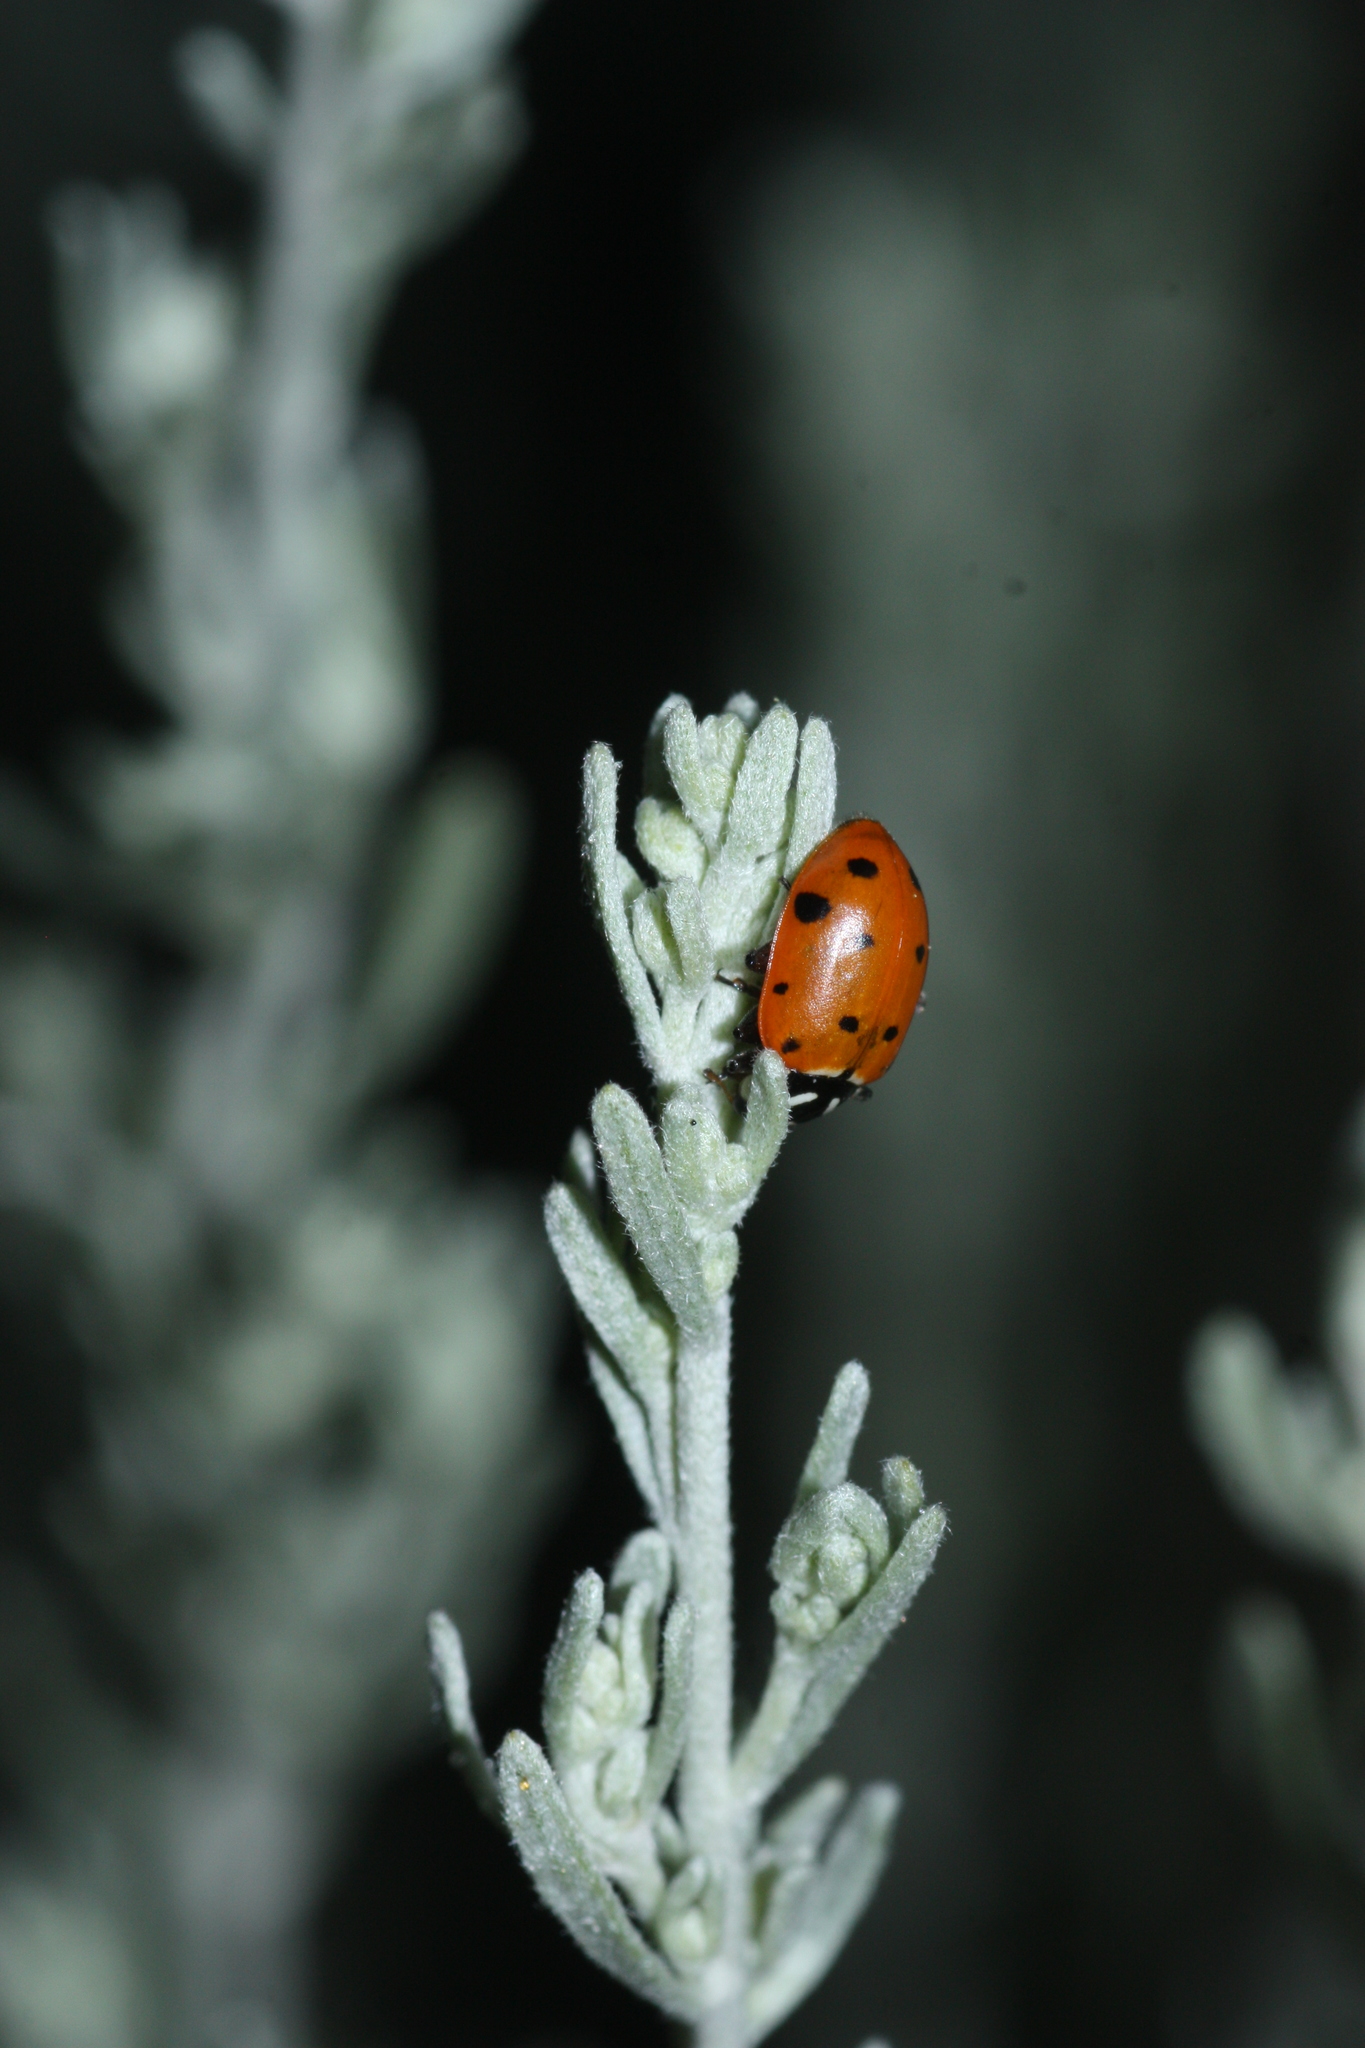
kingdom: Animalia
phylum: Arthropoda
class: Insecta
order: Coleoptera
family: Coccinellidae
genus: Hippodamia
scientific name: Hippodamia convergens
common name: Convergent lady beetle
